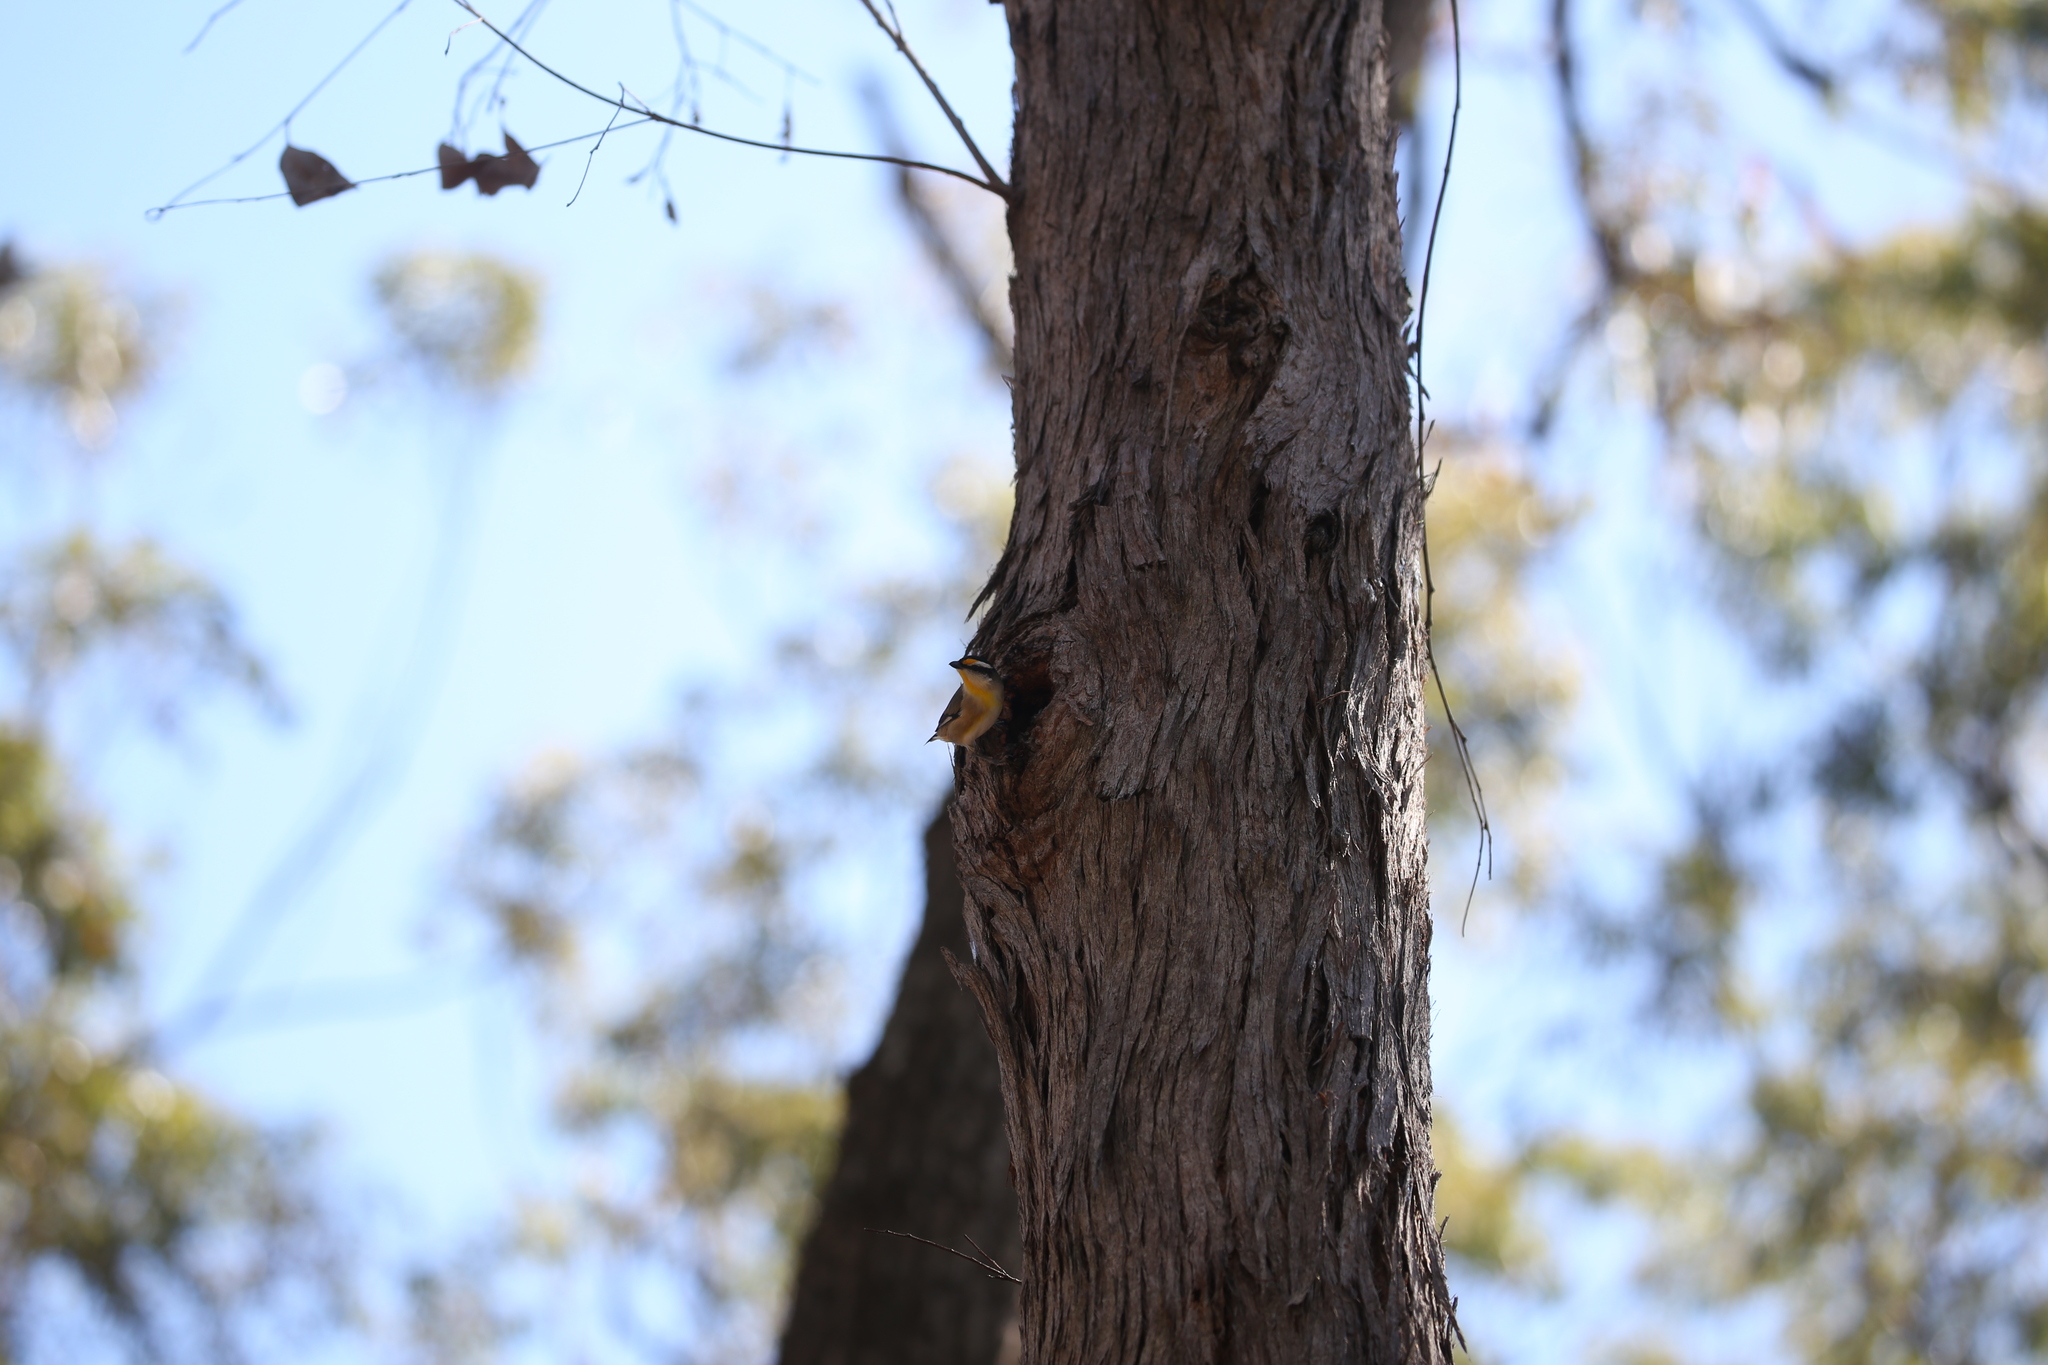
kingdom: Animalia
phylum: Chordata
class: Aves
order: Passeriformes
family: Pardalotidae
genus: Pardalotus
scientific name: Pardalotus striatus
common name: Striated pardalote
